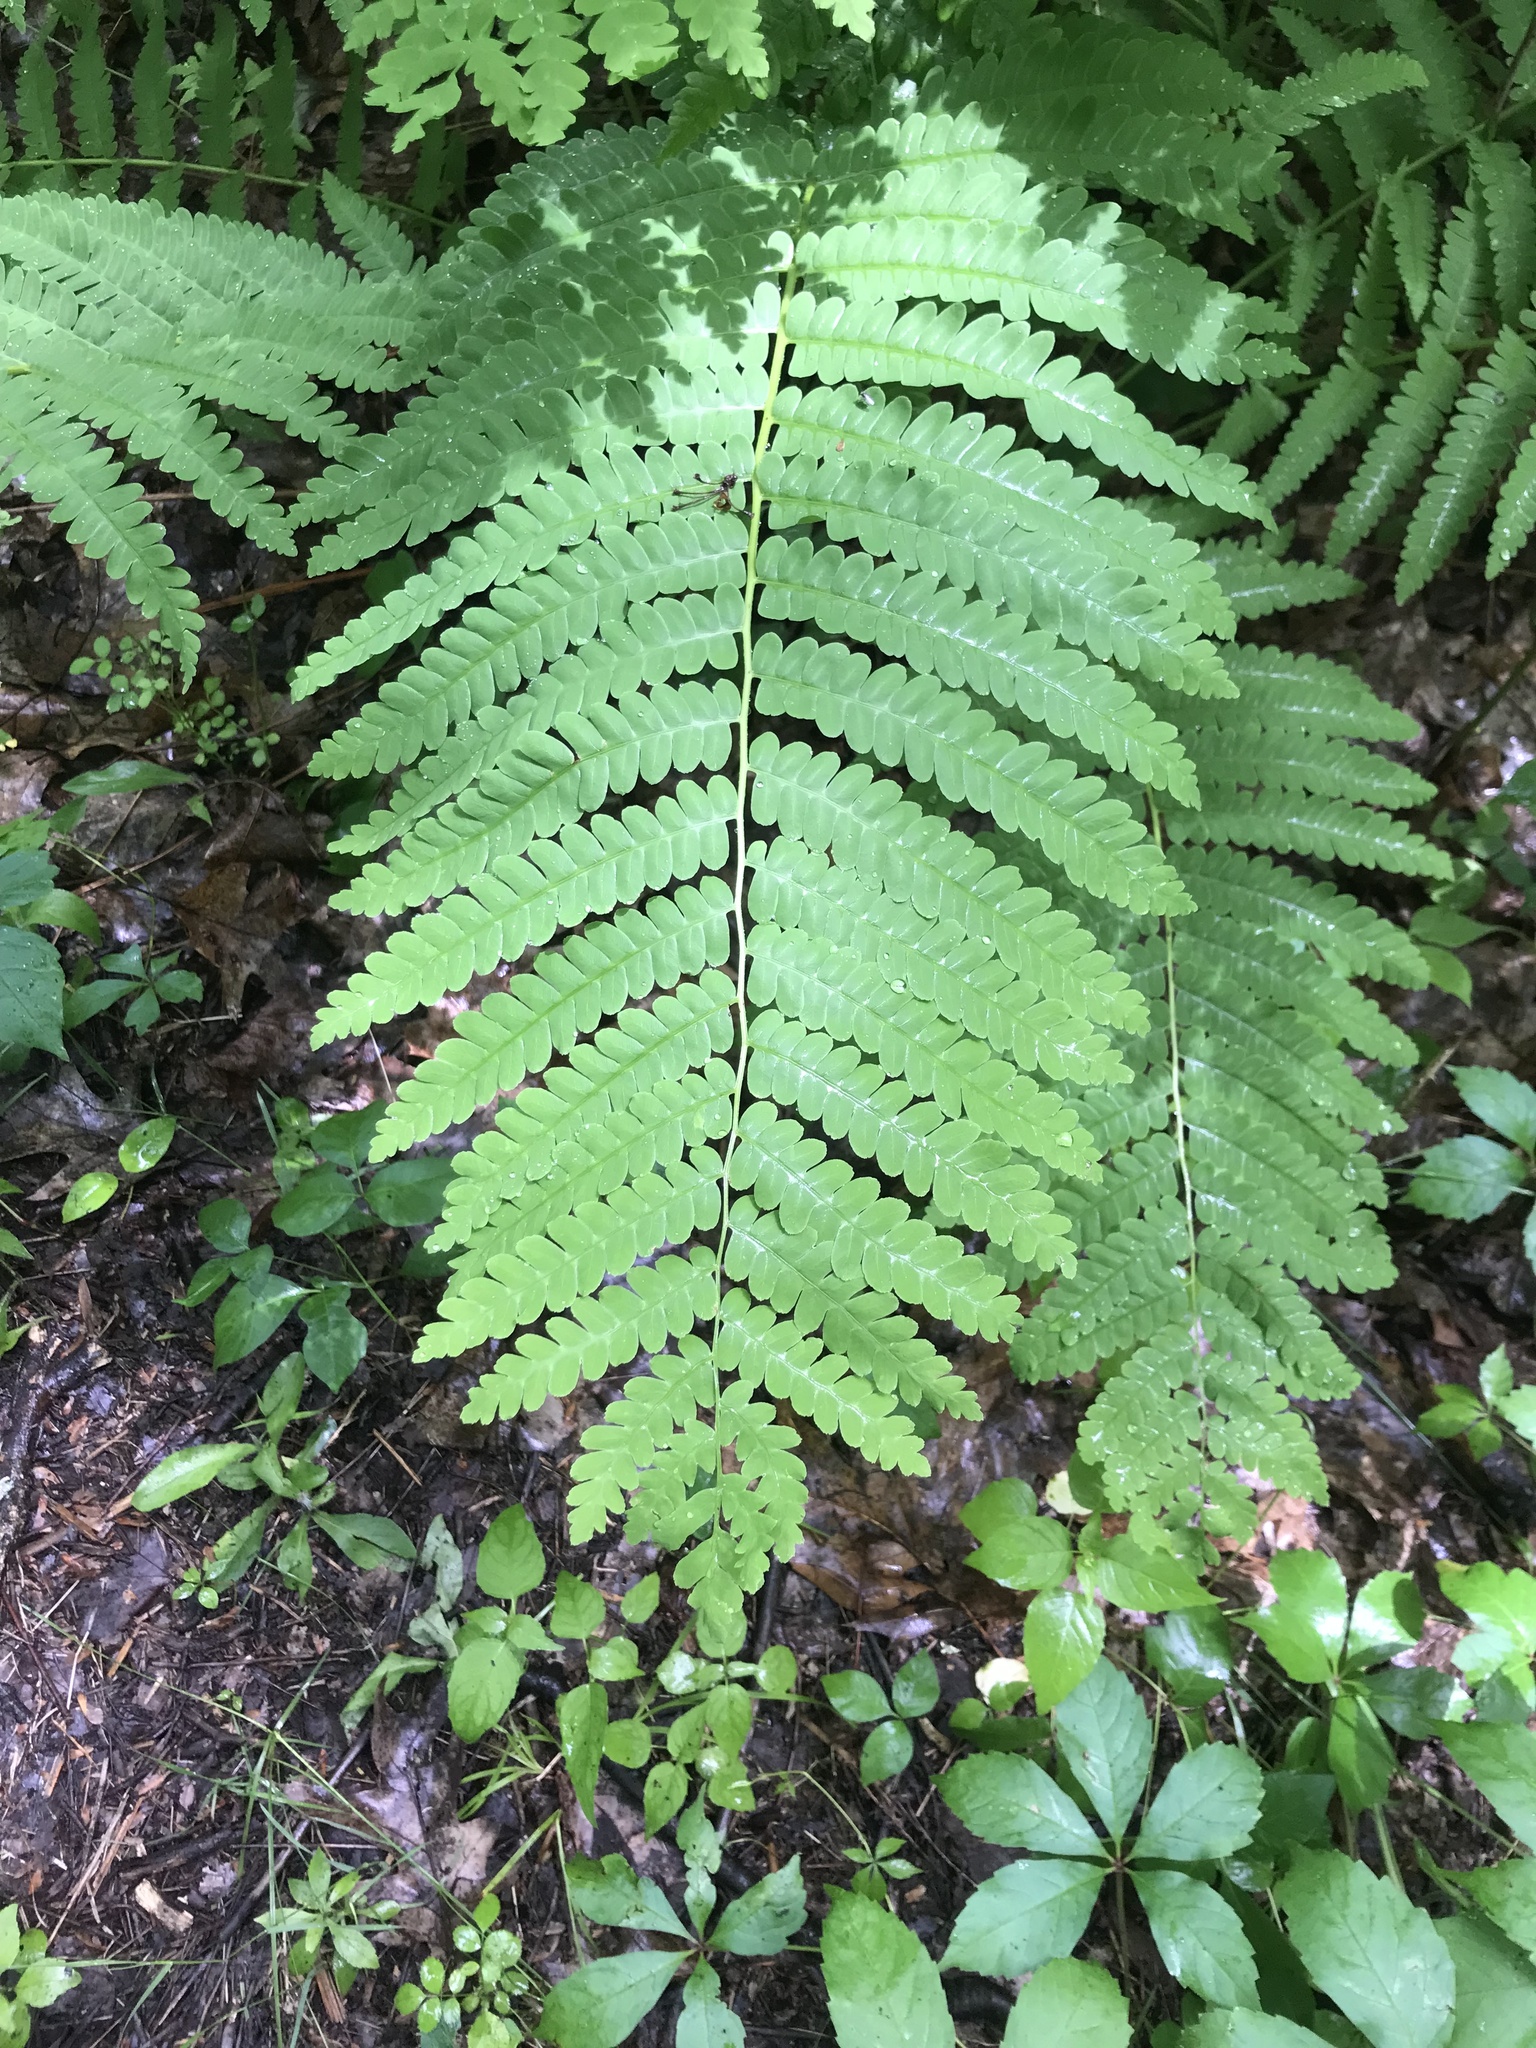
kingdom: Plantae
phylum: Tracheophyta
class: Polypodiopsida
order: Osmundales
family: Osmundaceae
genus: Claytosmunda
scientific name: Claytosmunda claytoniana
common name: Clayton's fern
